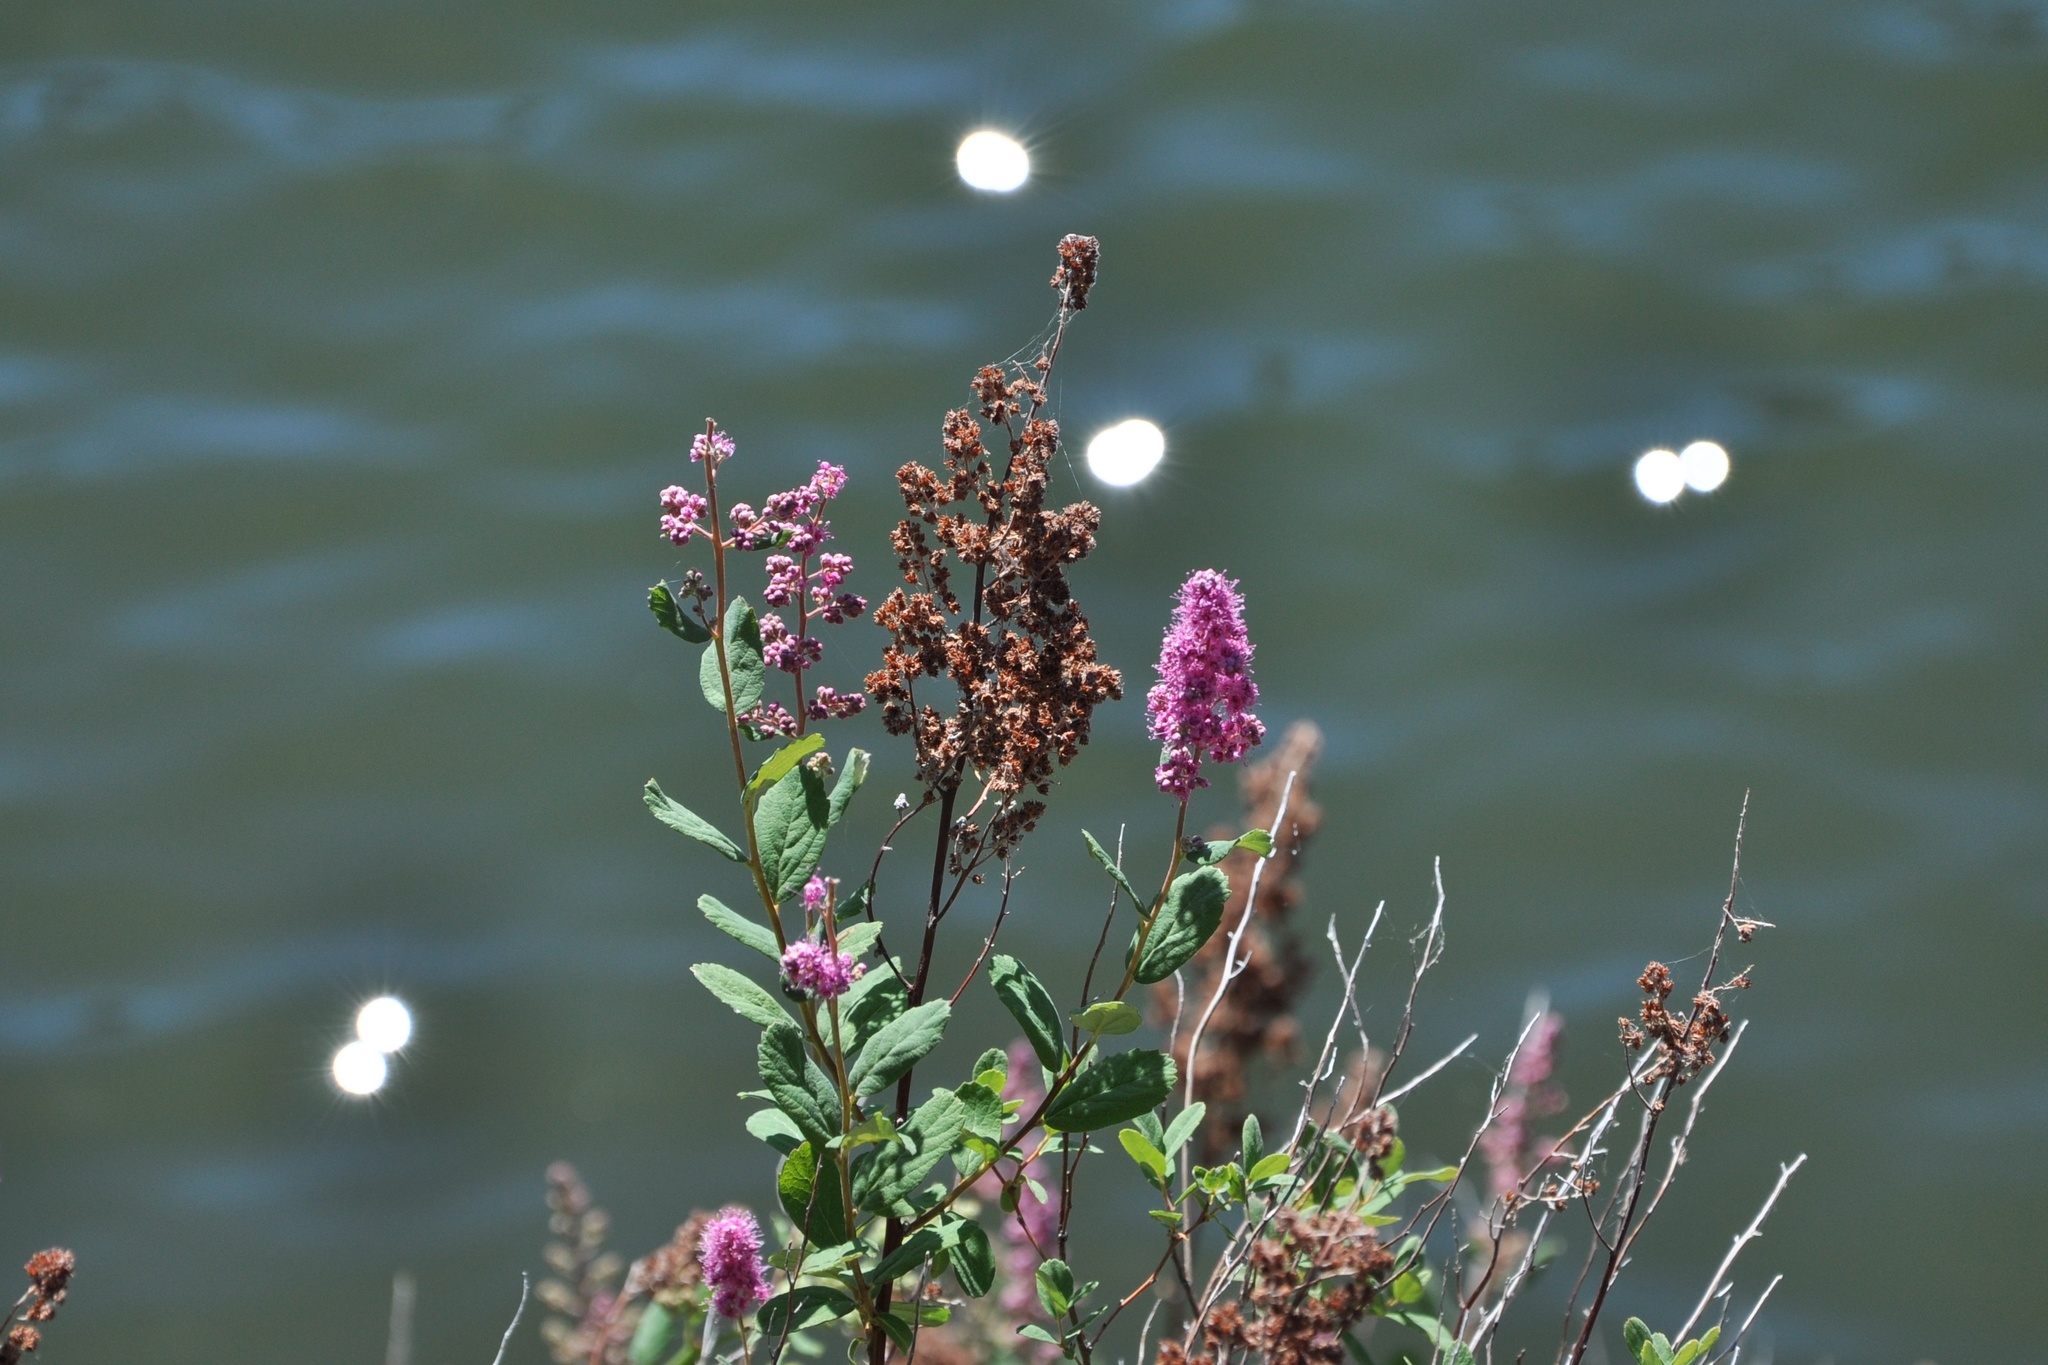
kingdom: Plantae
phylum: Tracheophyta
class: Magnoliopsida
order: Rosales
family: Rosaceae
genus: Spiraea
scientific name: Spiraea douglasii
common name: Steeplebush
